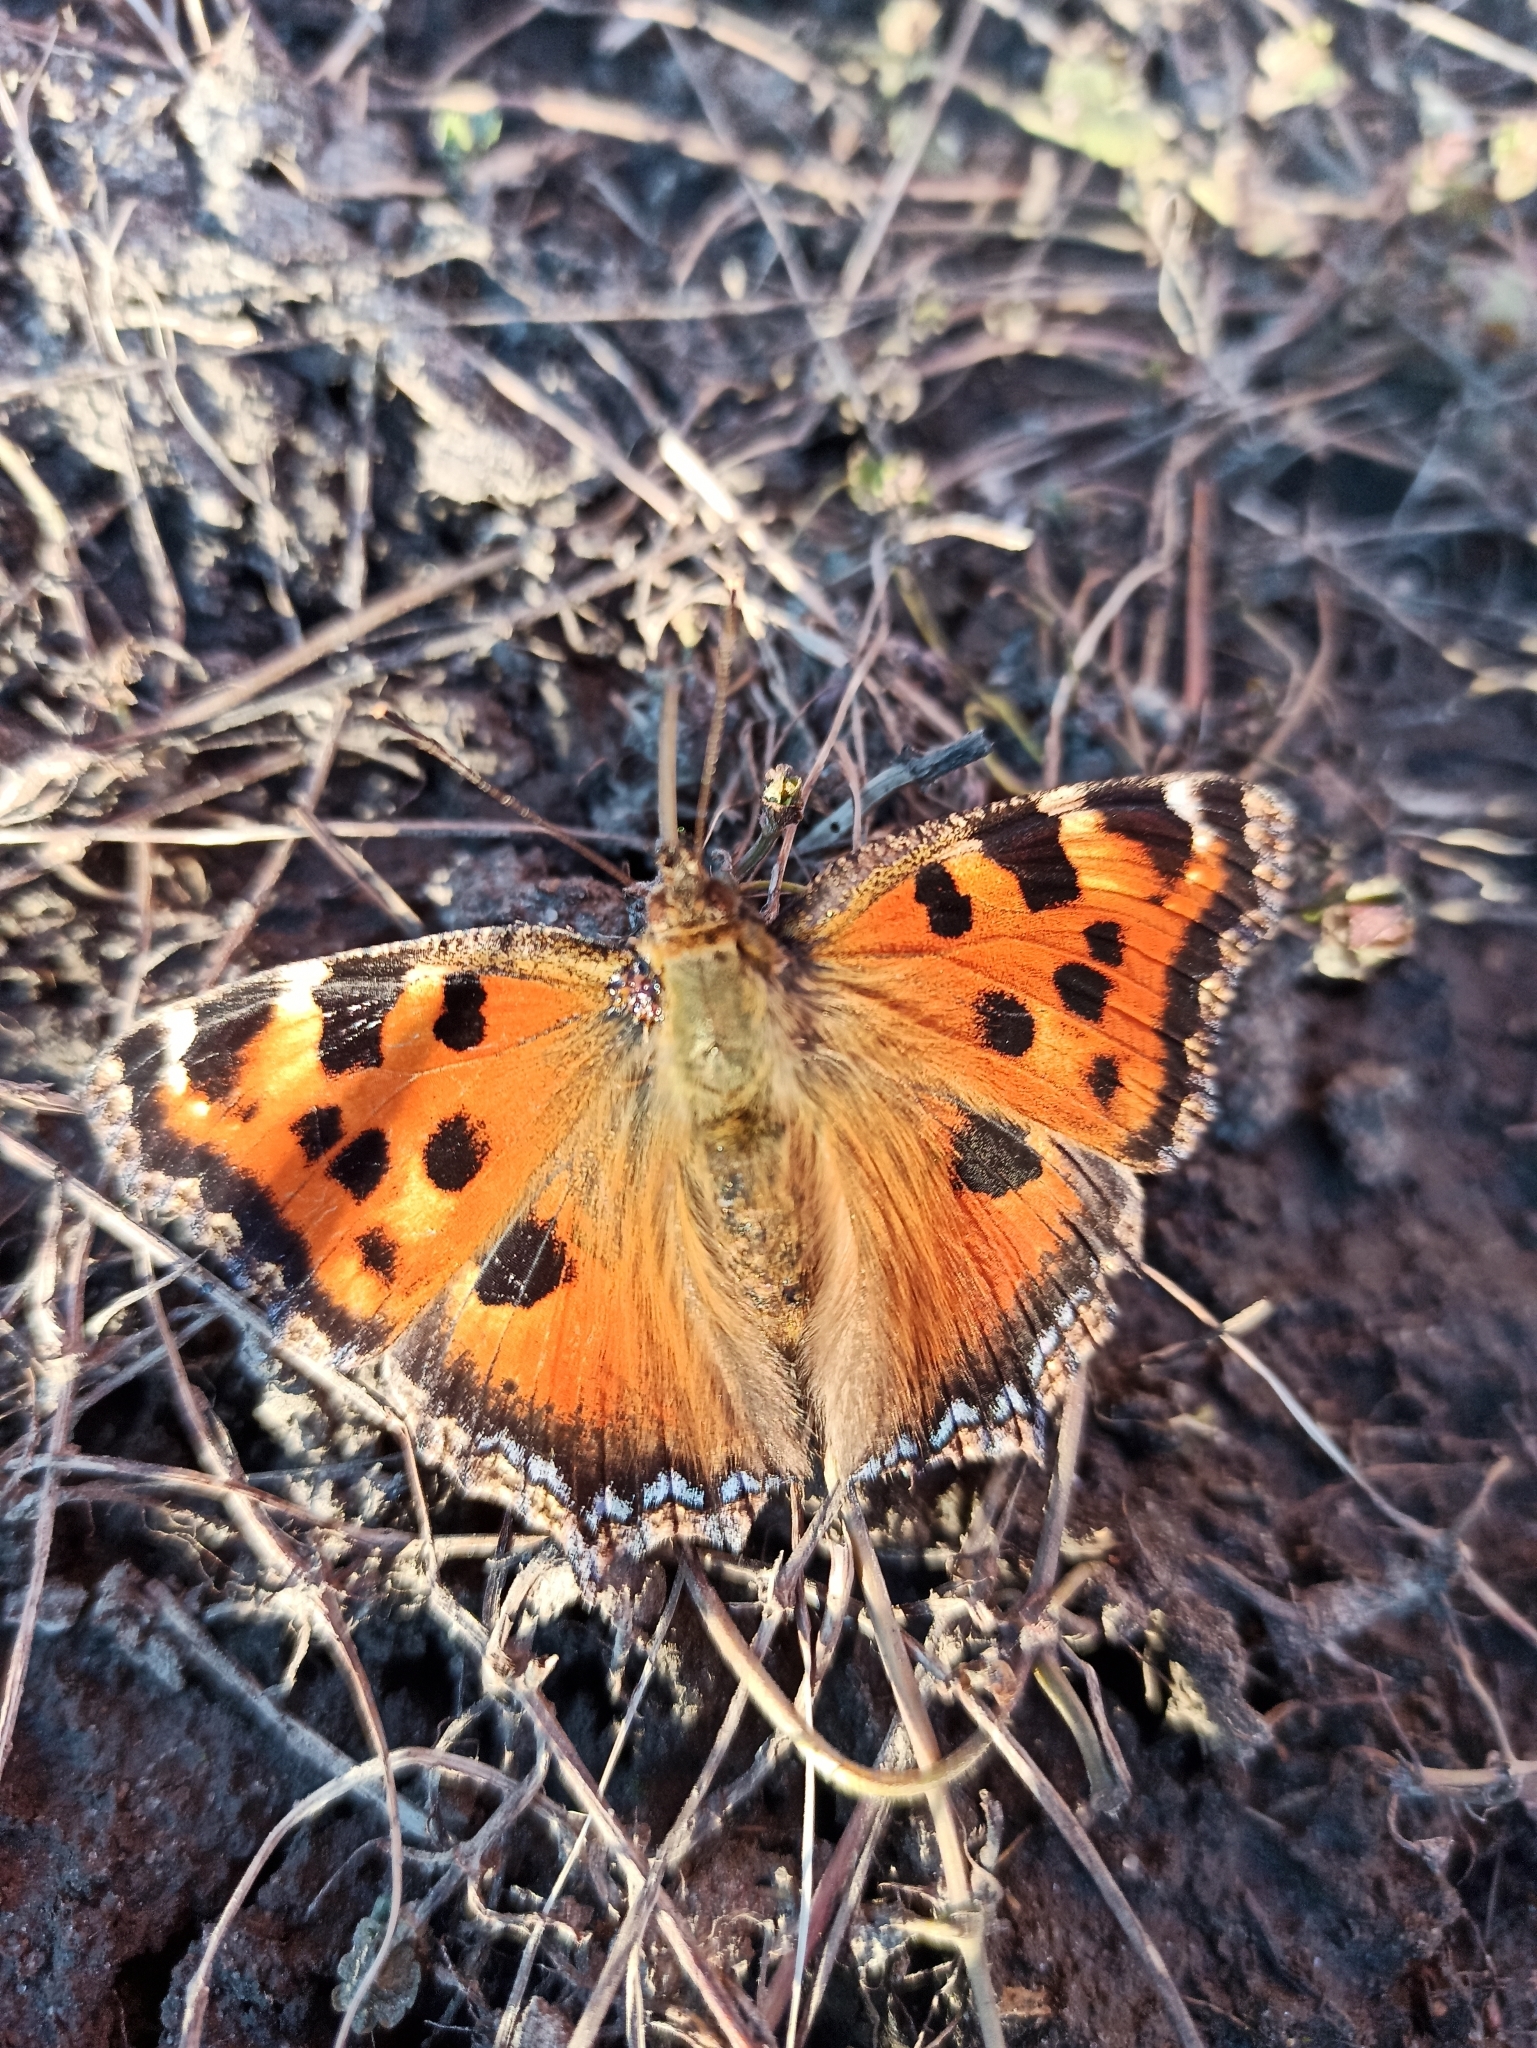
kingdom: Animalia
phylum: Arthropoda
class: Insecta
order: Lepidoptera
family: Nymphalidae
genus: Nymphalis
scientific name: Nymphalis xanthomelas
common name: Scarce tortoiseshell
